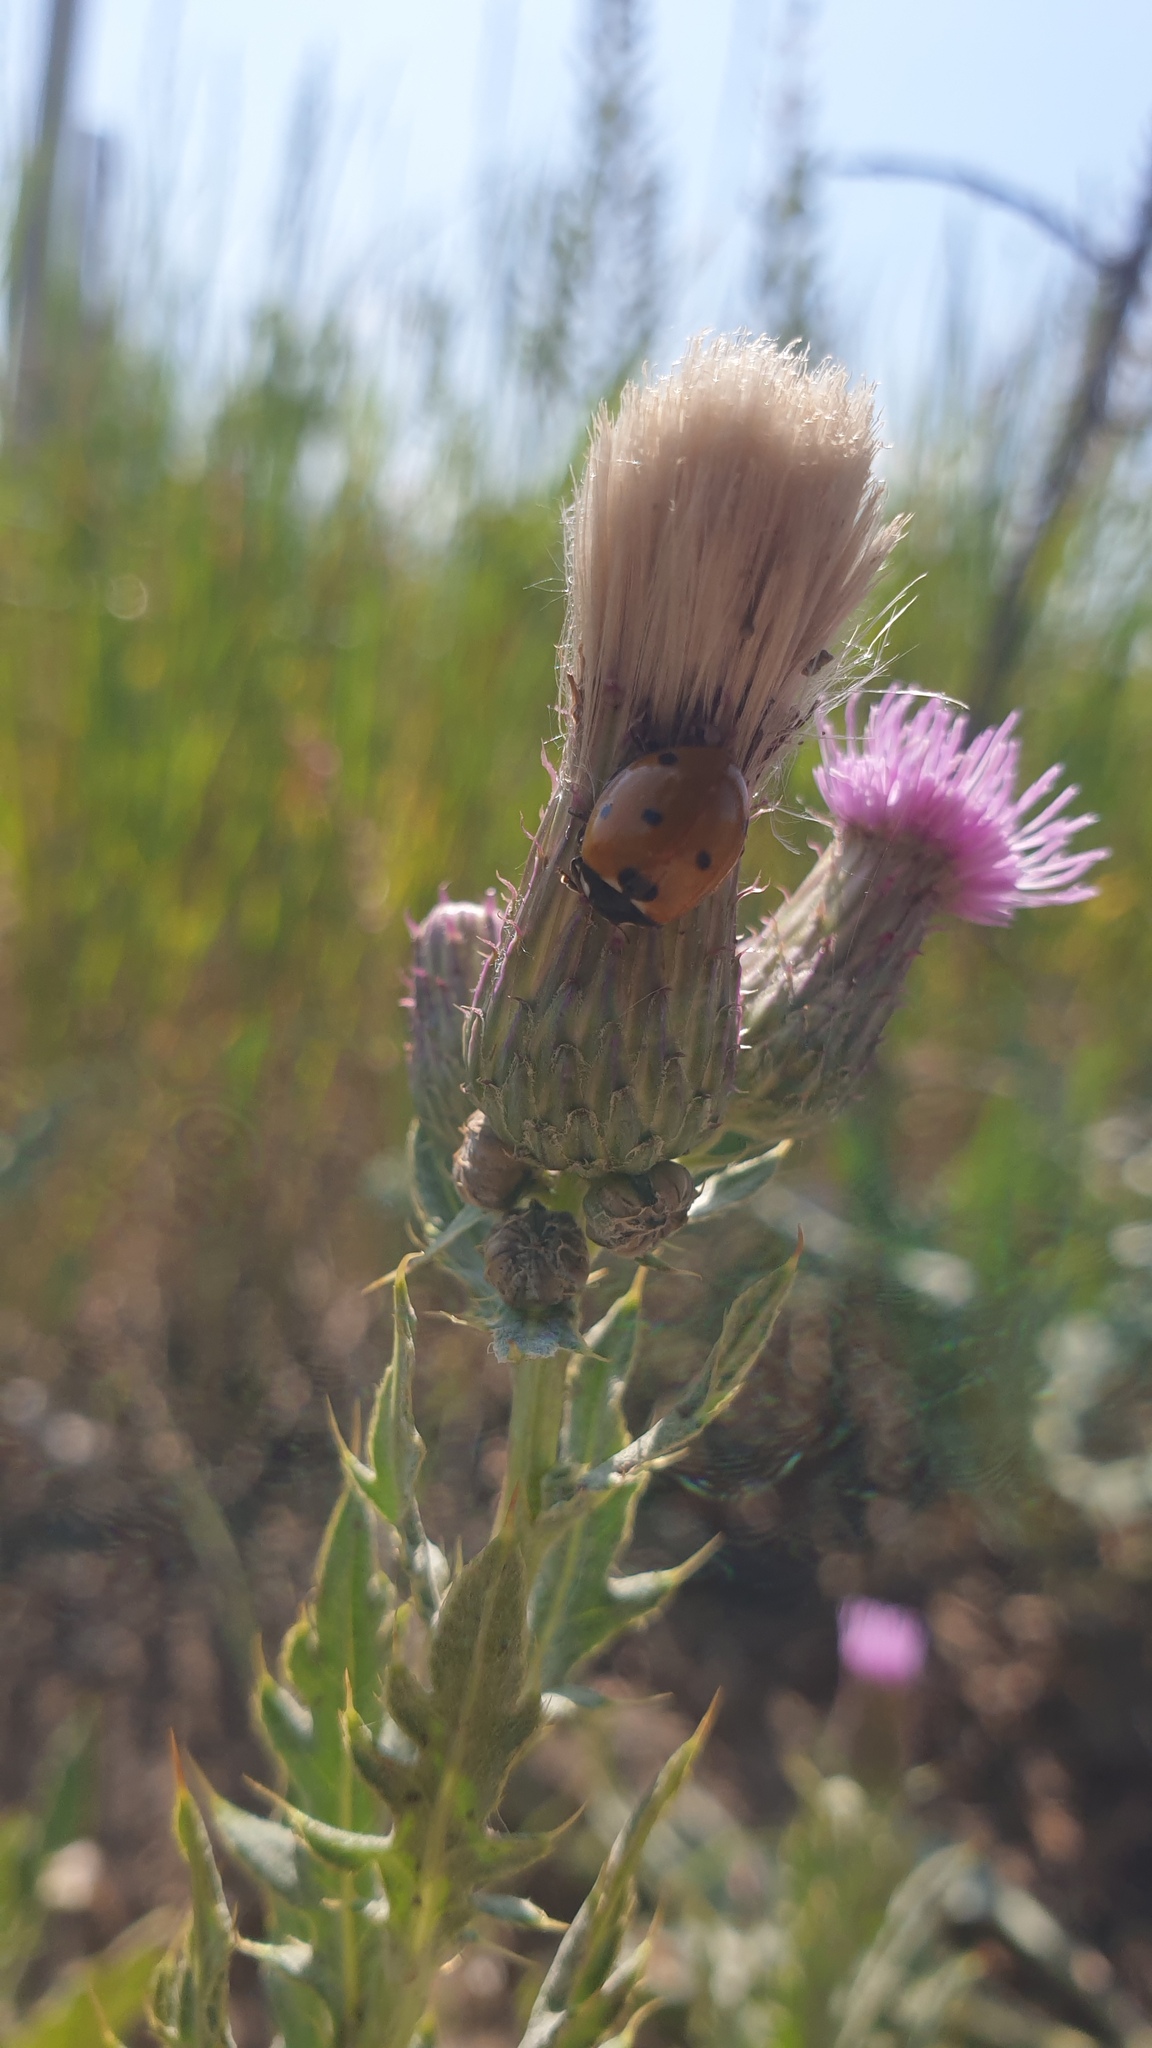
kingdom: Animalia
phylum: Arthropoda
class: Insecta
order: Coleoptera
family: Coccinellidae
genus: Coccinella
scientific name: Coccinella septempunctata
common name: Sevenspotted lady beetle
